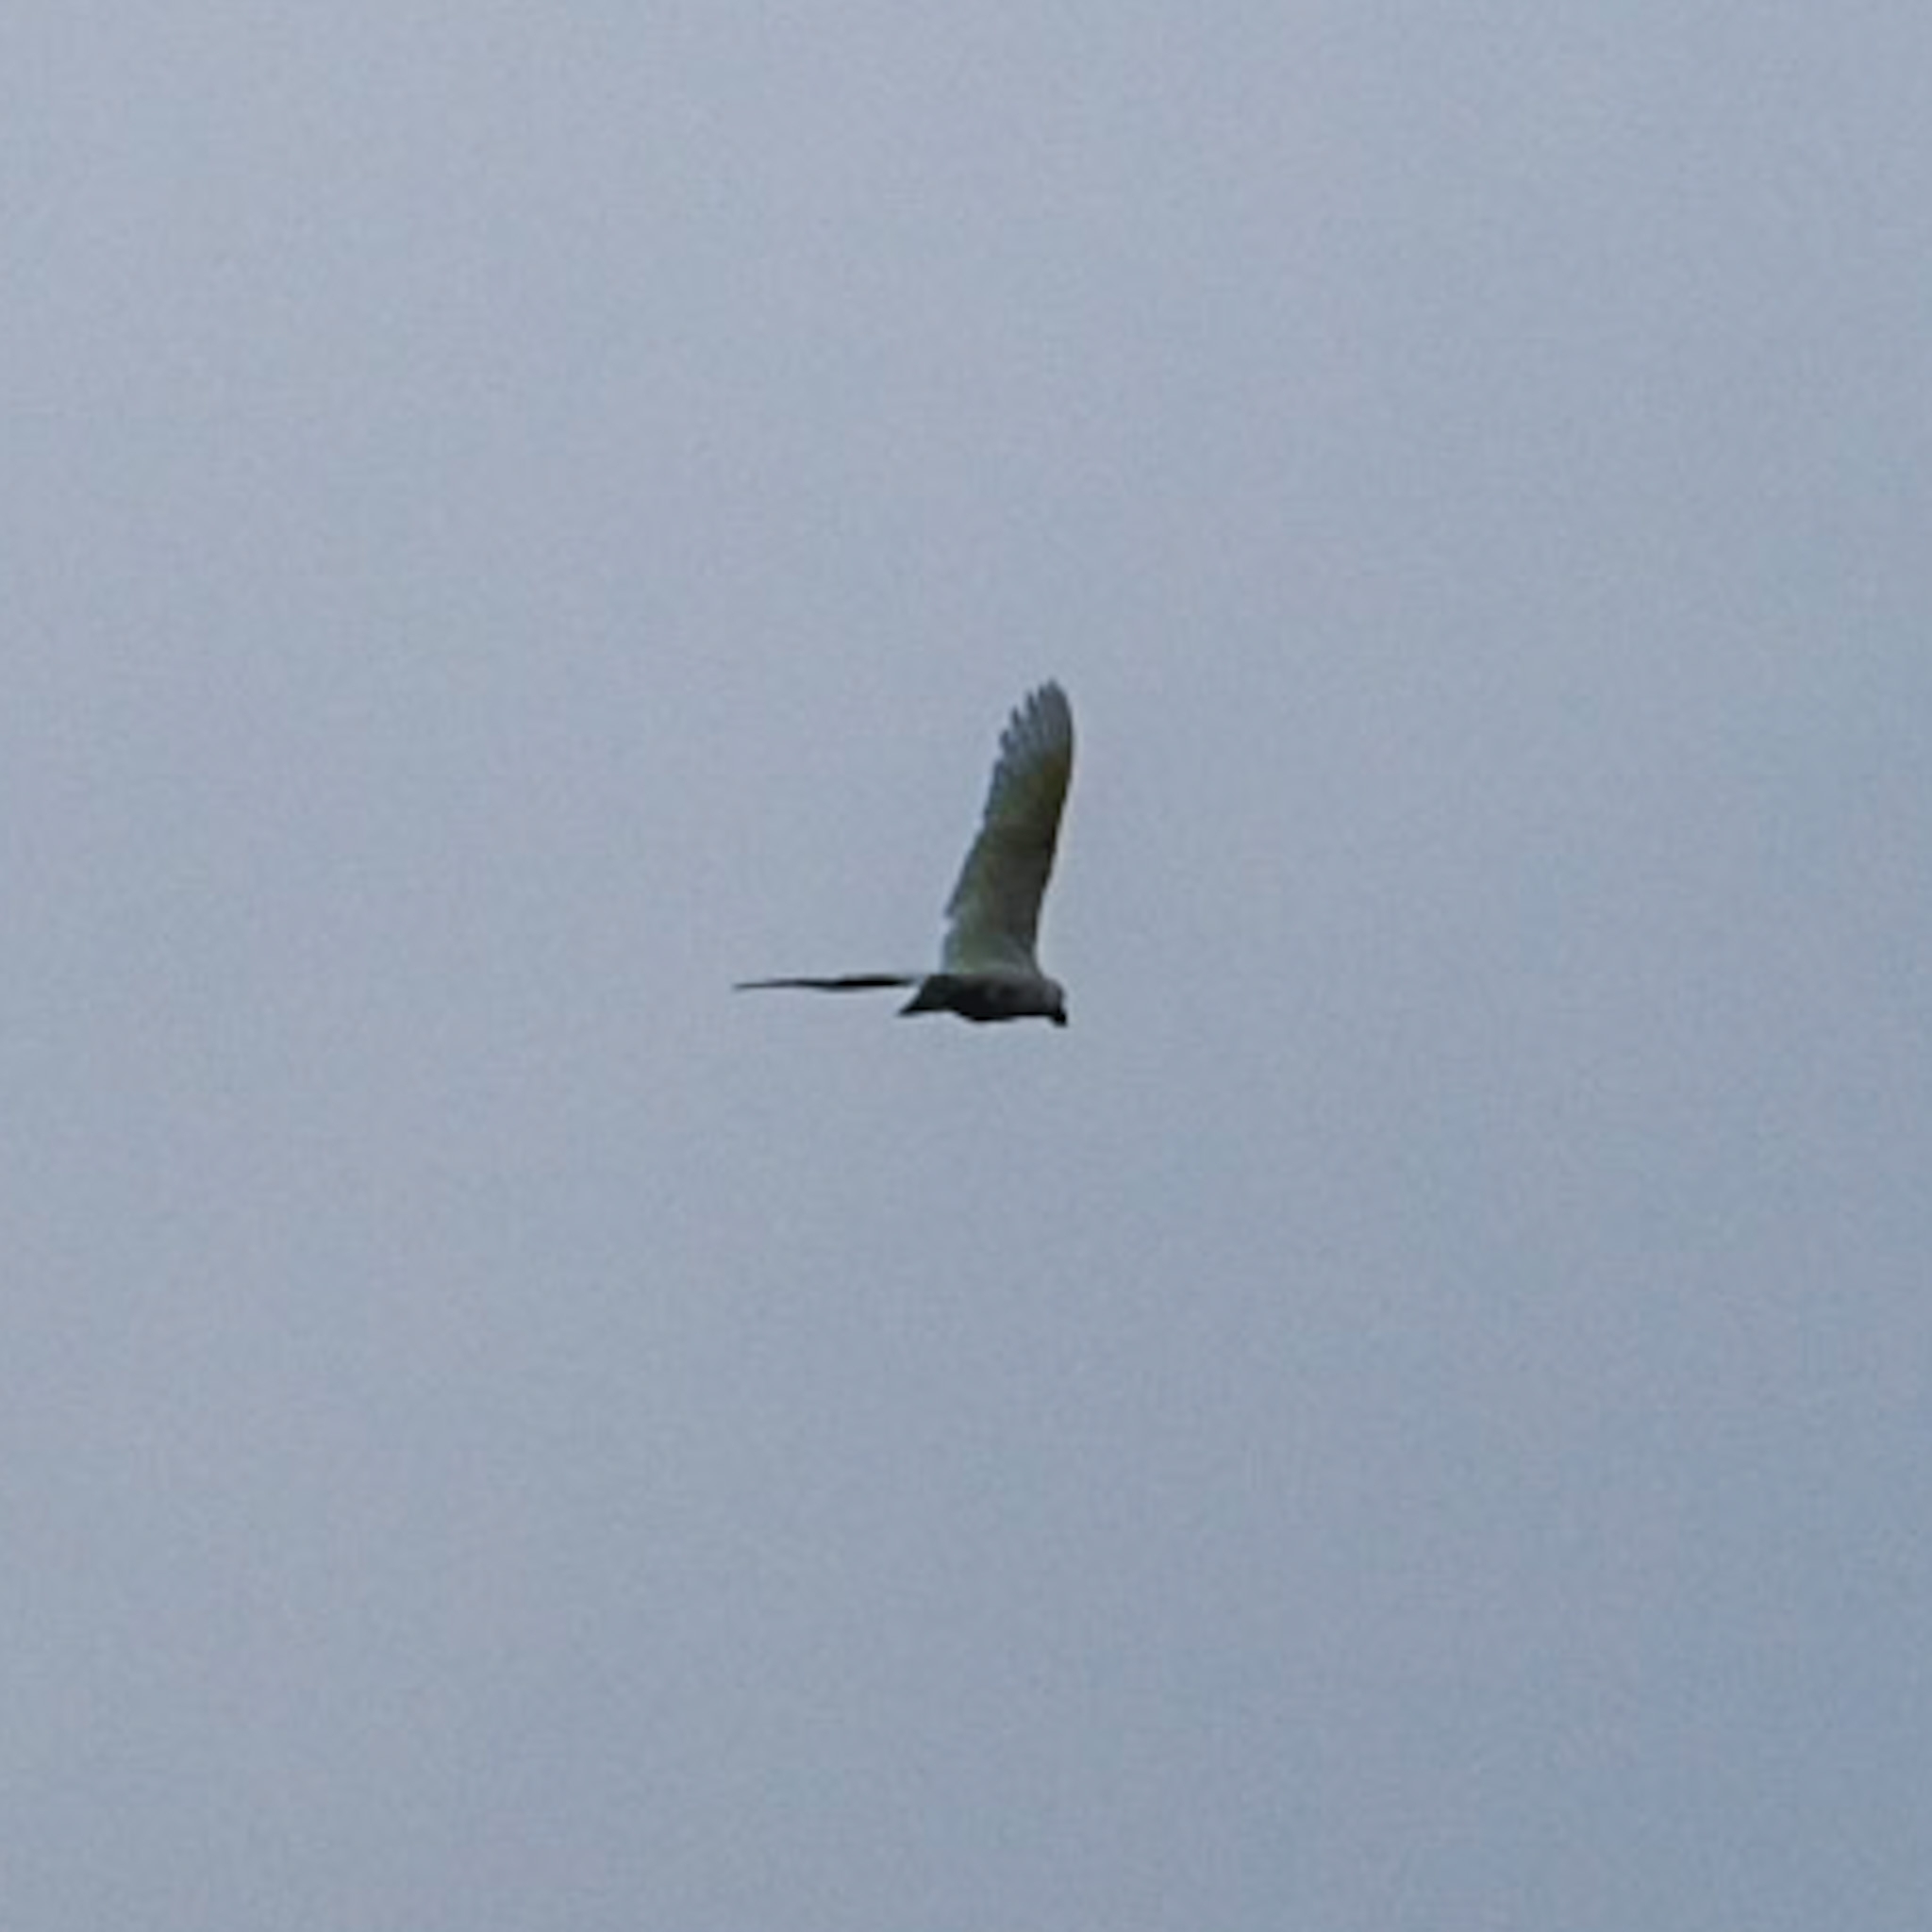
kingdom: Animalia
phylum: Chordata
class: Aves
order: Psittaciformes
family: Psittacidae
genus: Cacatua
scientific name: Cacatua galerita
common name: Sulphur-crested cockatoo
